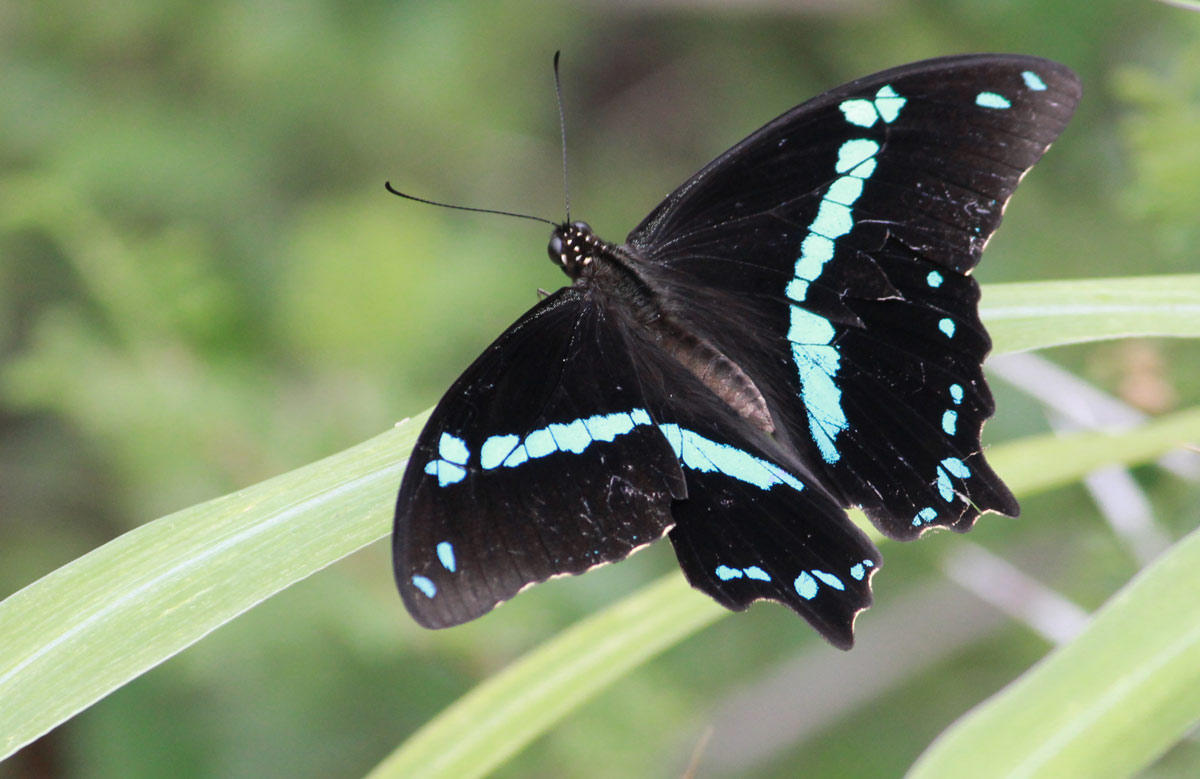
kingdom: Animalia
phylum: Arthropoda
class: Insecta
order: Lepidoptera
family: Papilionidae
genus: Papilio
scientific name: Papilio nireus
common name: Greenbanded swallowtail
